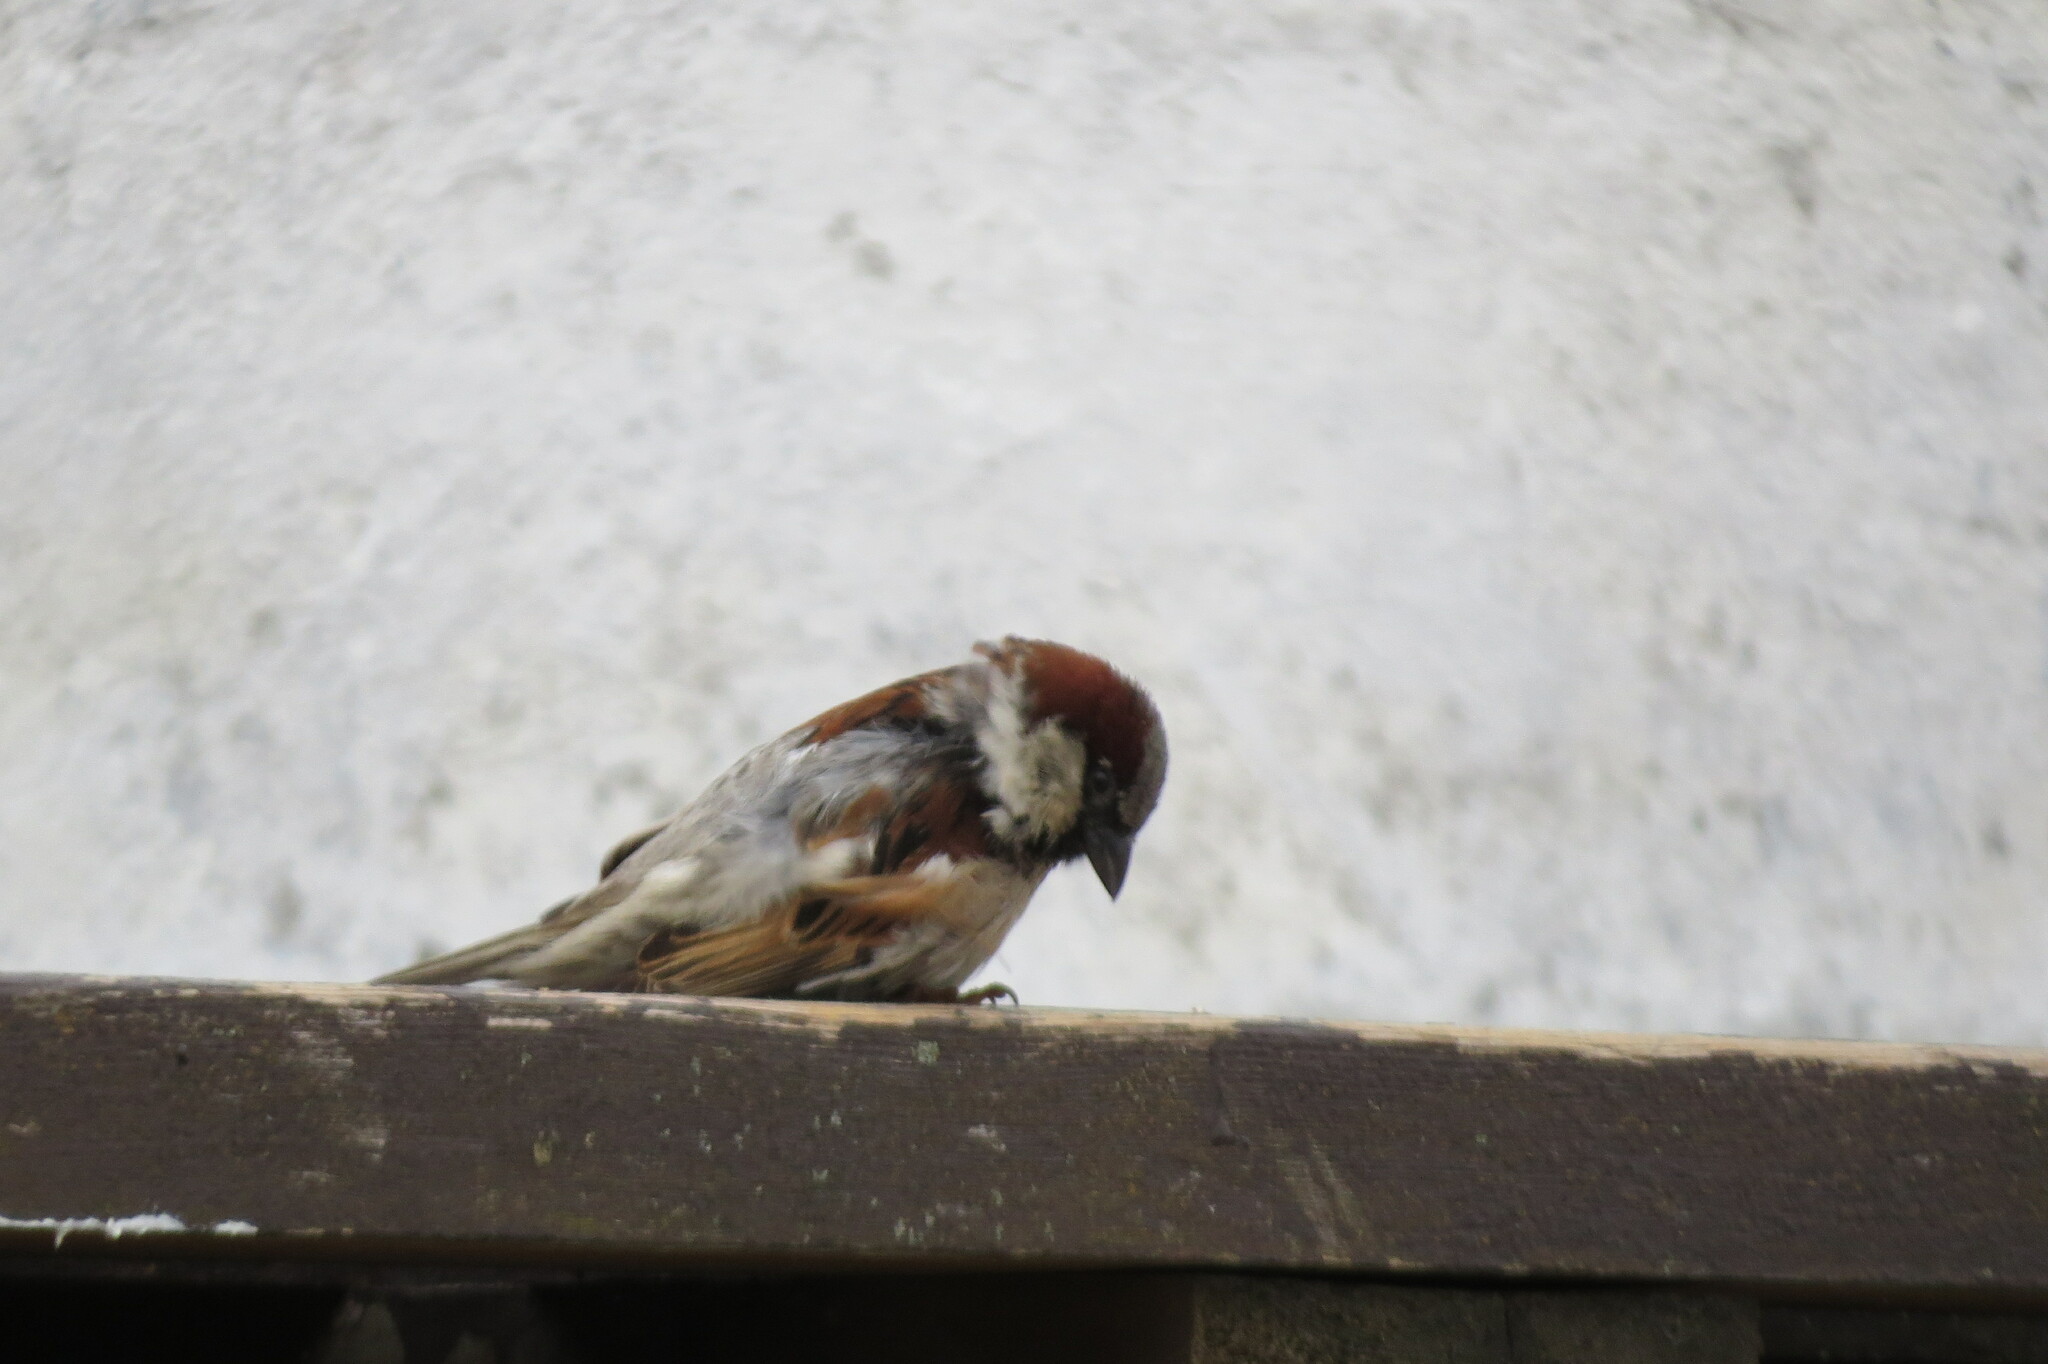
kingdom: Animalia
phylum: Chordata
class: Aves
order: Passeriformes
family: Passeridae
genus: Passer
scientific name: Passer domesticus
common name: House sparrow
